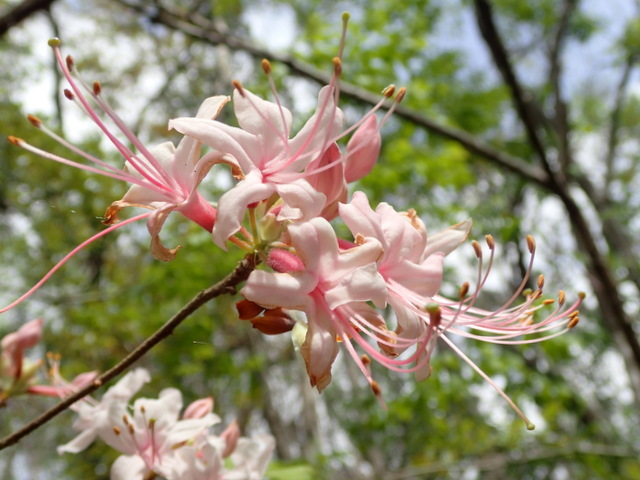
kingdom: Plantae
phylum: Tracheophyta
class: Magnoliopsida
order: Ericales
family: Ericaceae
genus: Rhododendron
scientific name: Rhododendron canescens
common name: Mountain azalea
